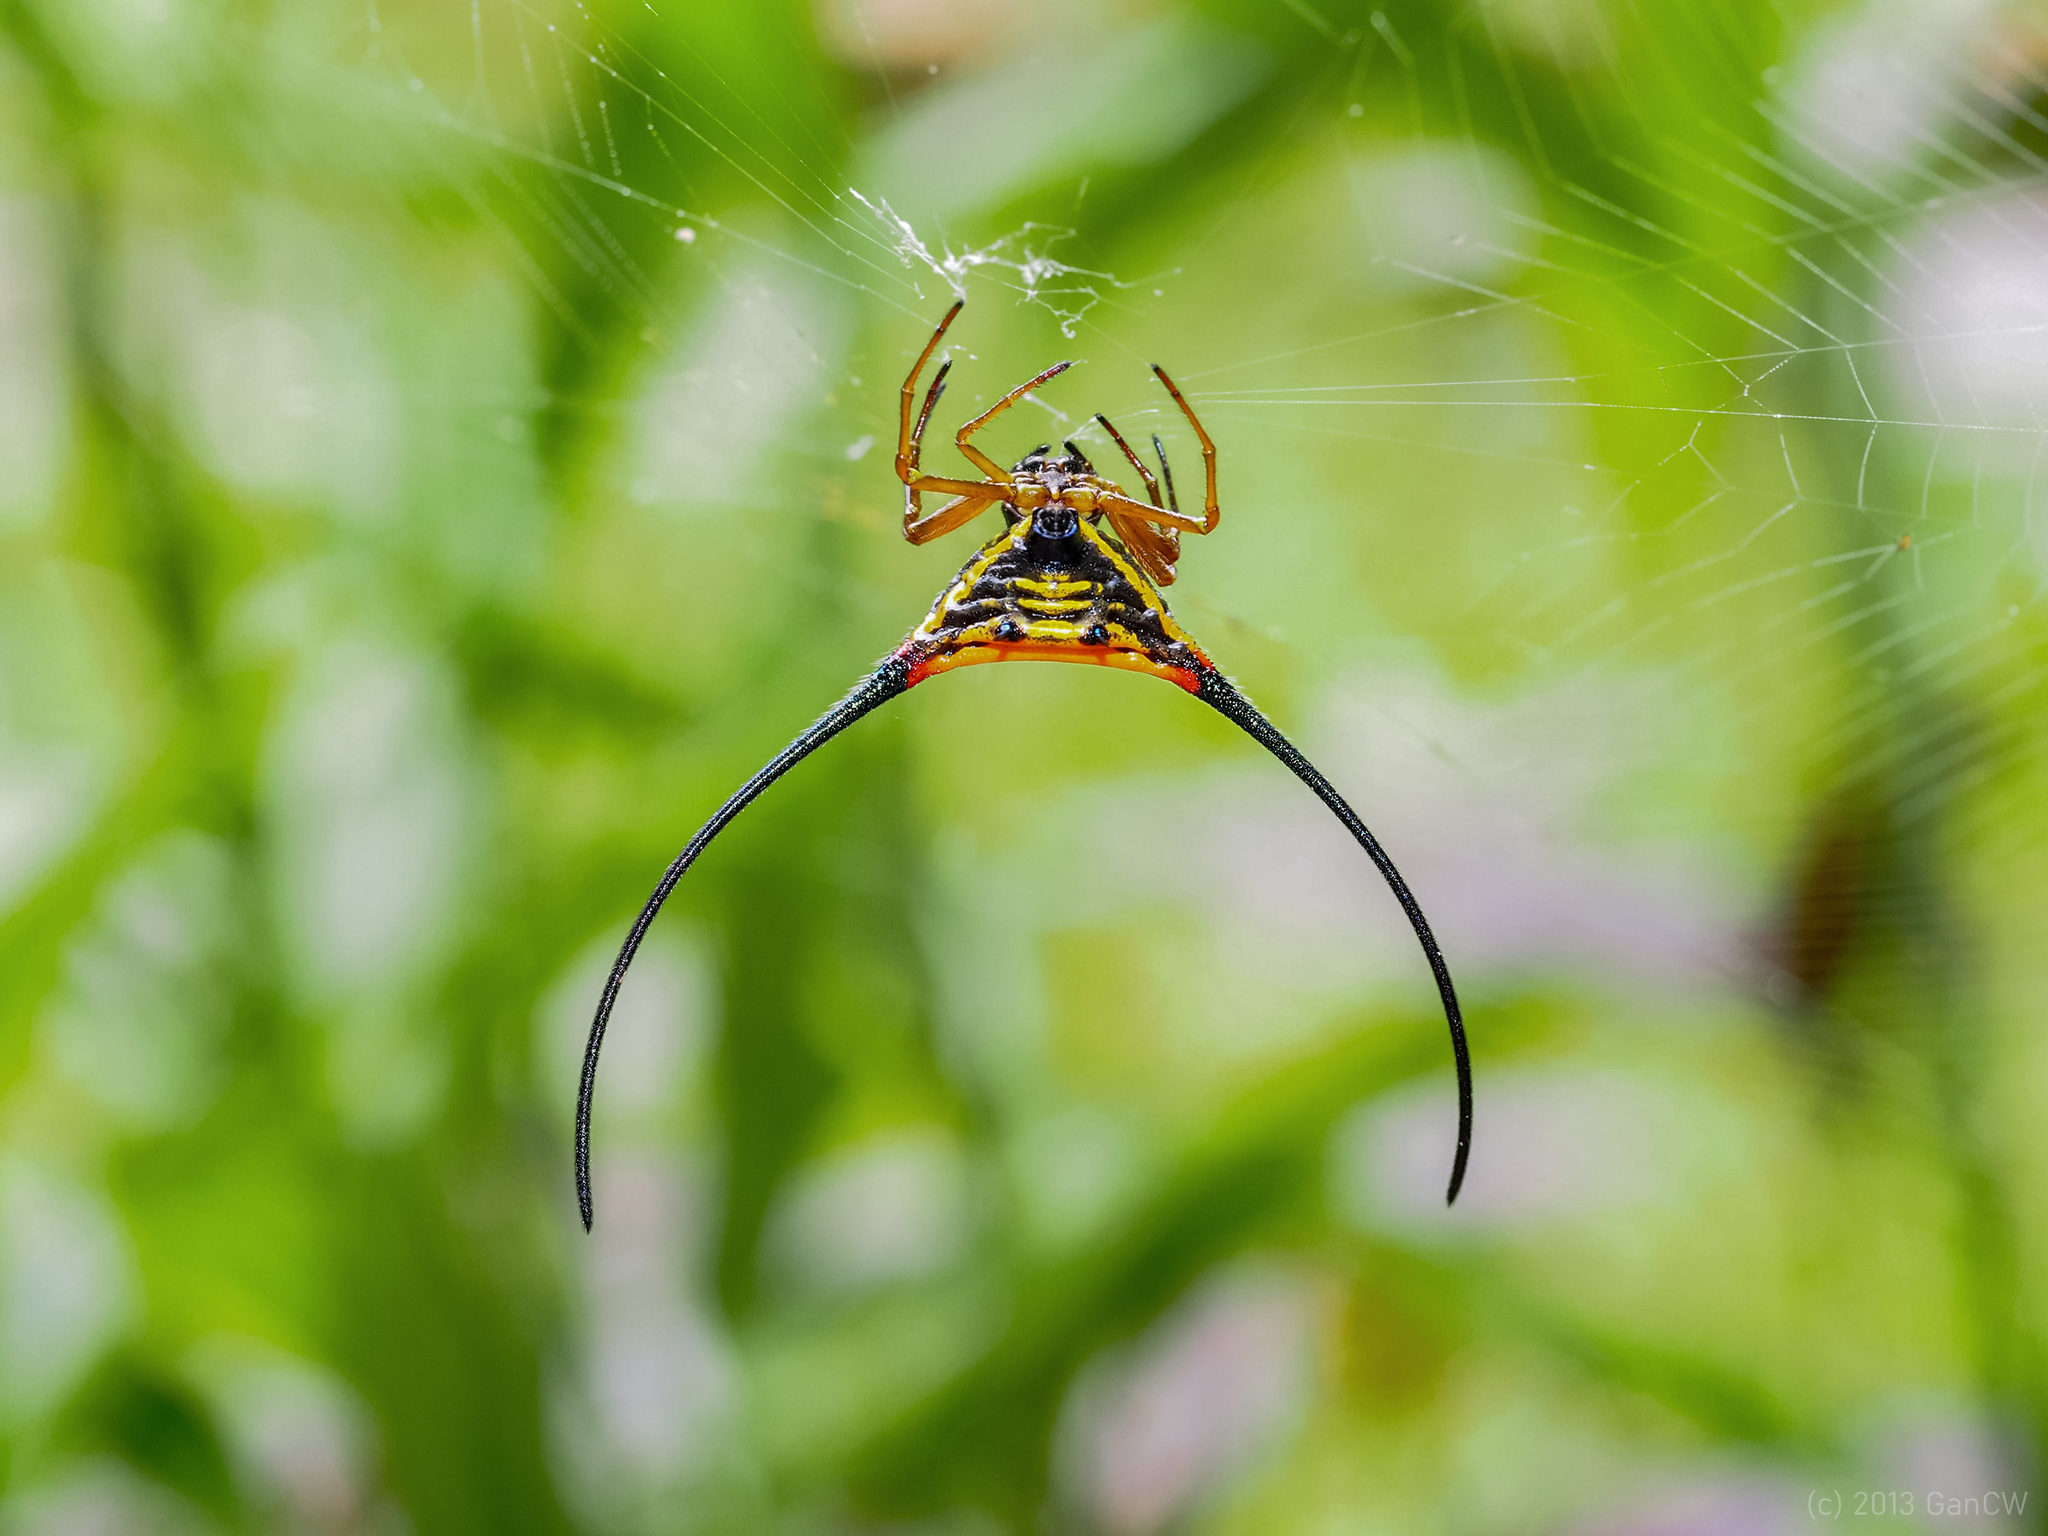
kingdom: Animalia
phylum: Arthropoda
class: Arachnida
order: Araneae
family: Araneidae
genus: Macracantha
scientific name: Macracantha arcuata
